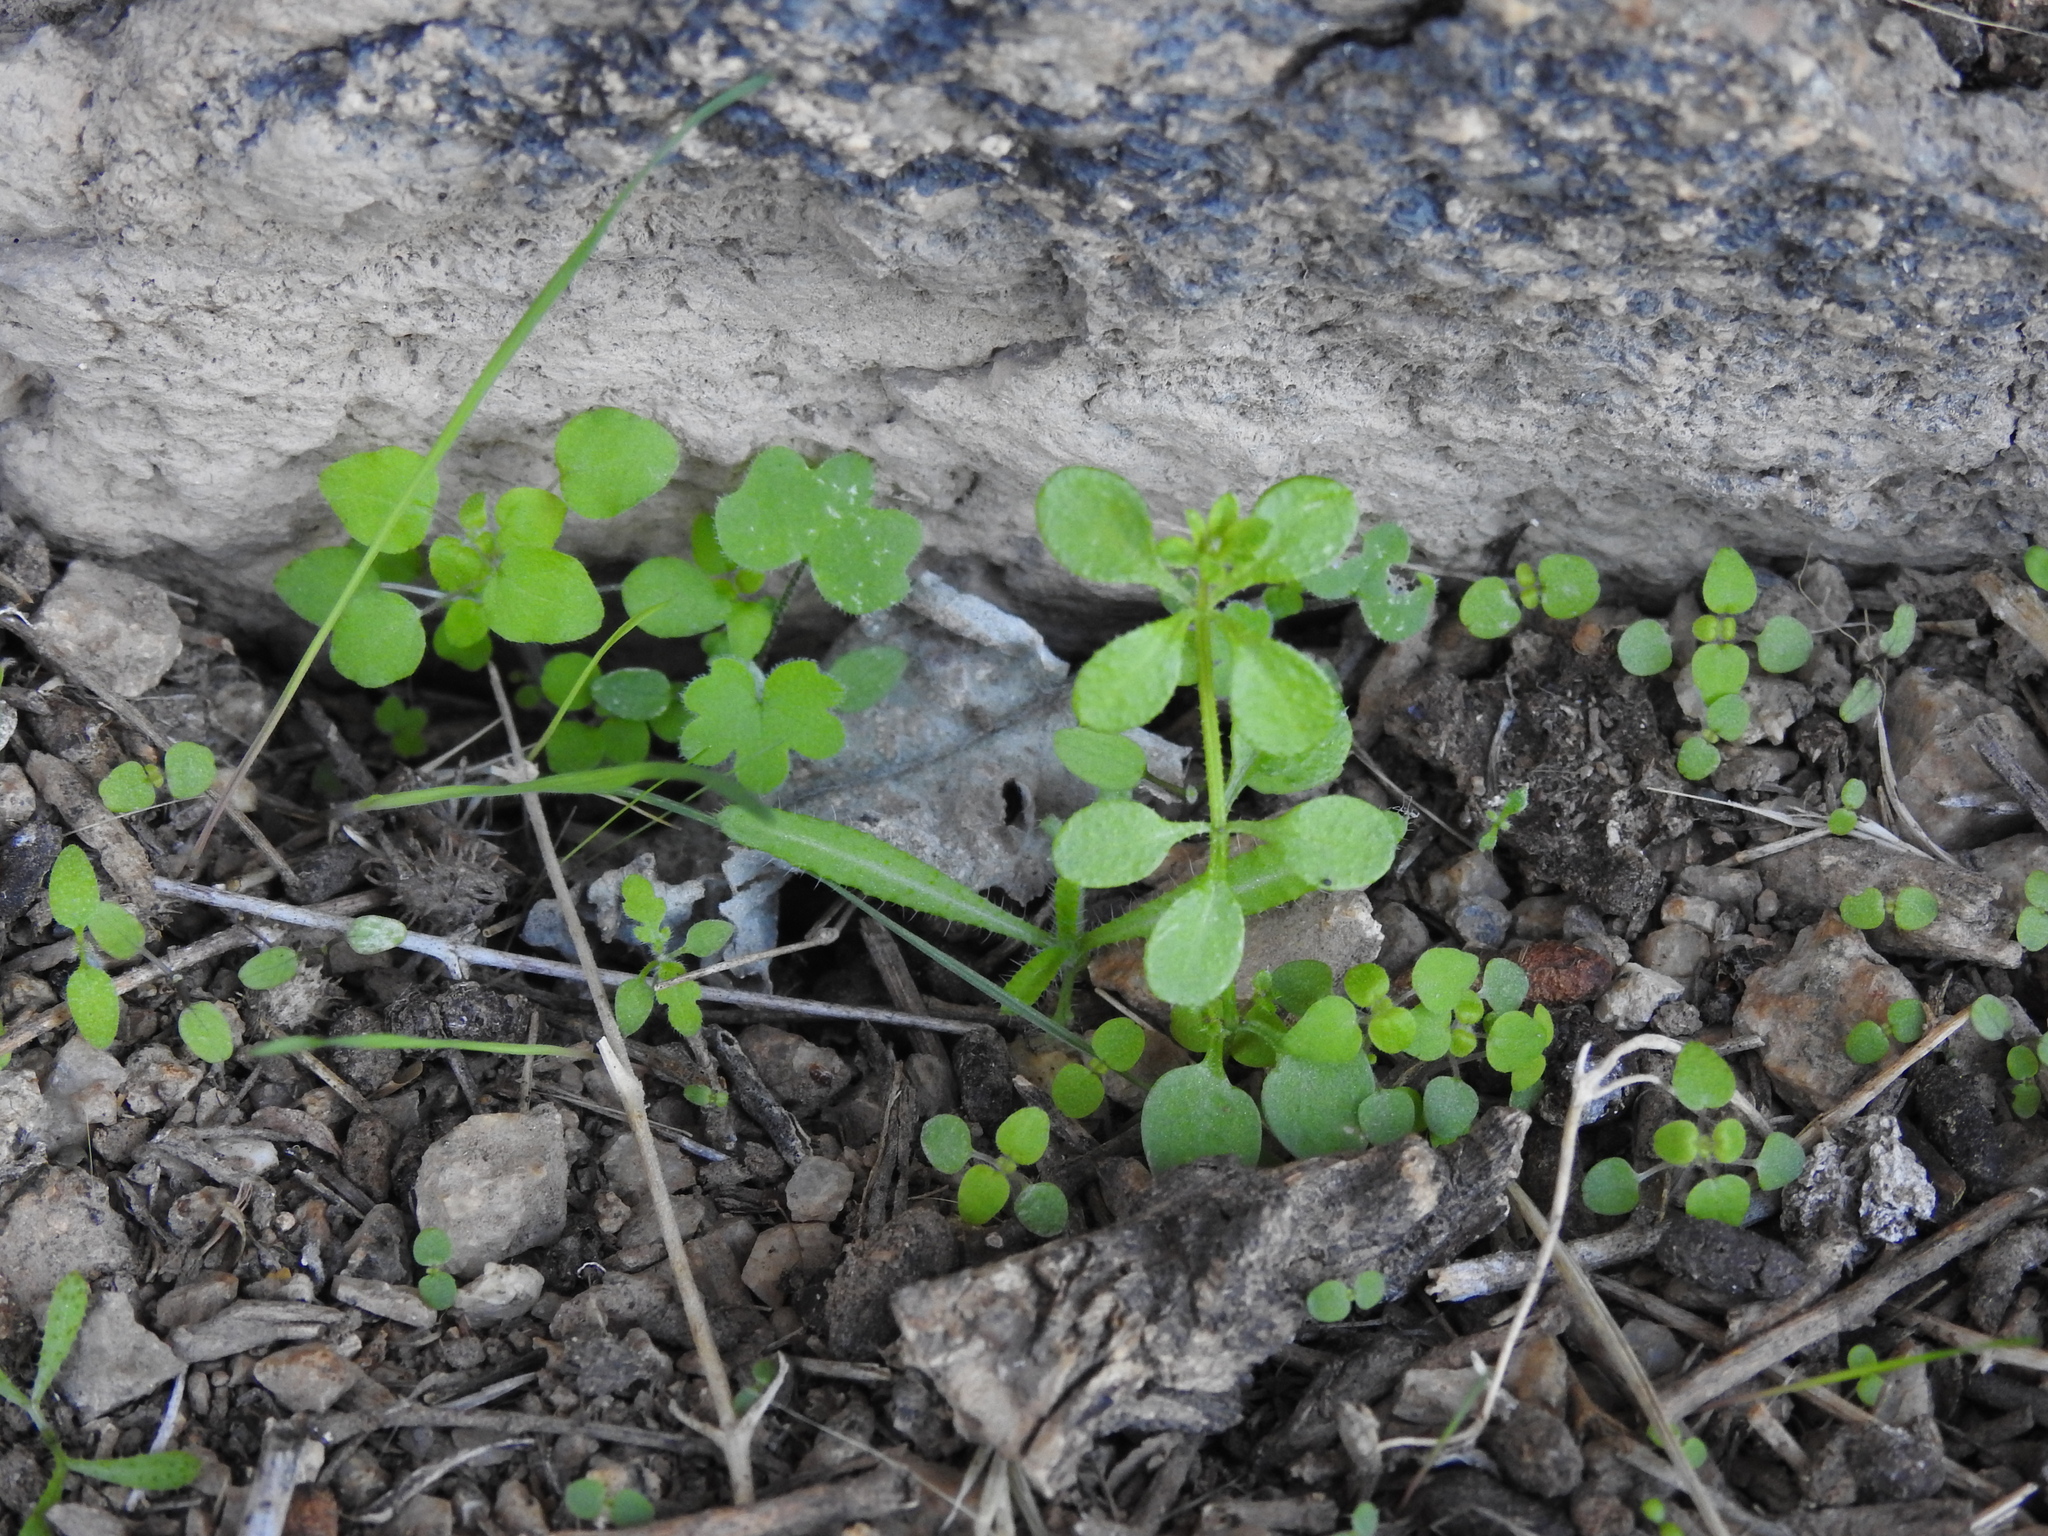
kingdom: Plantae
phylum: Tracheophyta
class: Magnoliopsida
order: Apiales
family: Apiaceae
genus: Bowlesia
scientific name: Bowlesia incana
